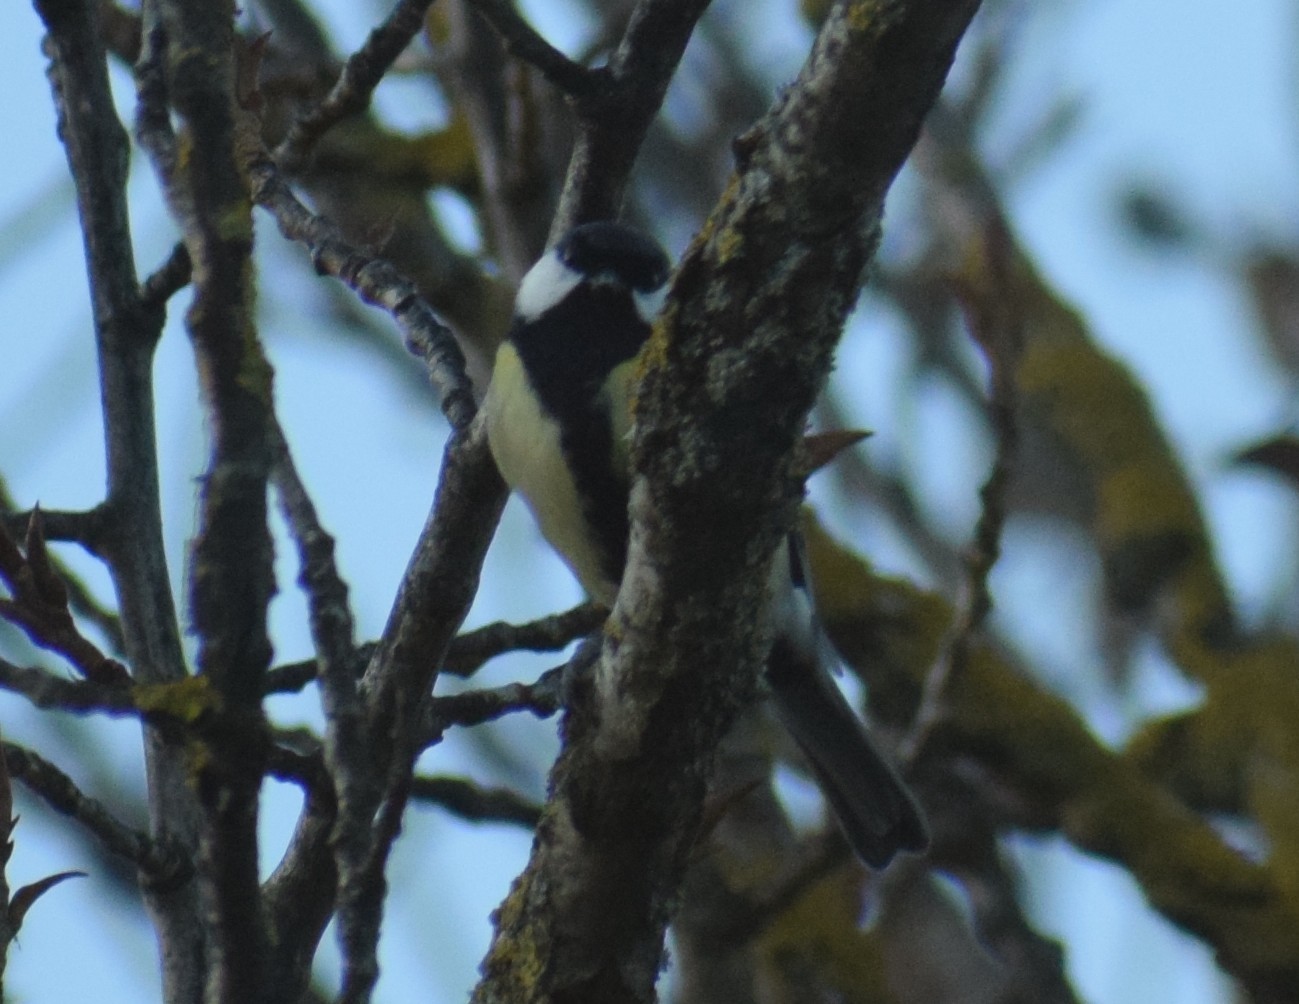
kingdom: Animalia
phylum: Chordata
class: Aves
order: Passeriformes
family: Paridae
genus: Parus
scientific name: Parus major
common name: Great tit
